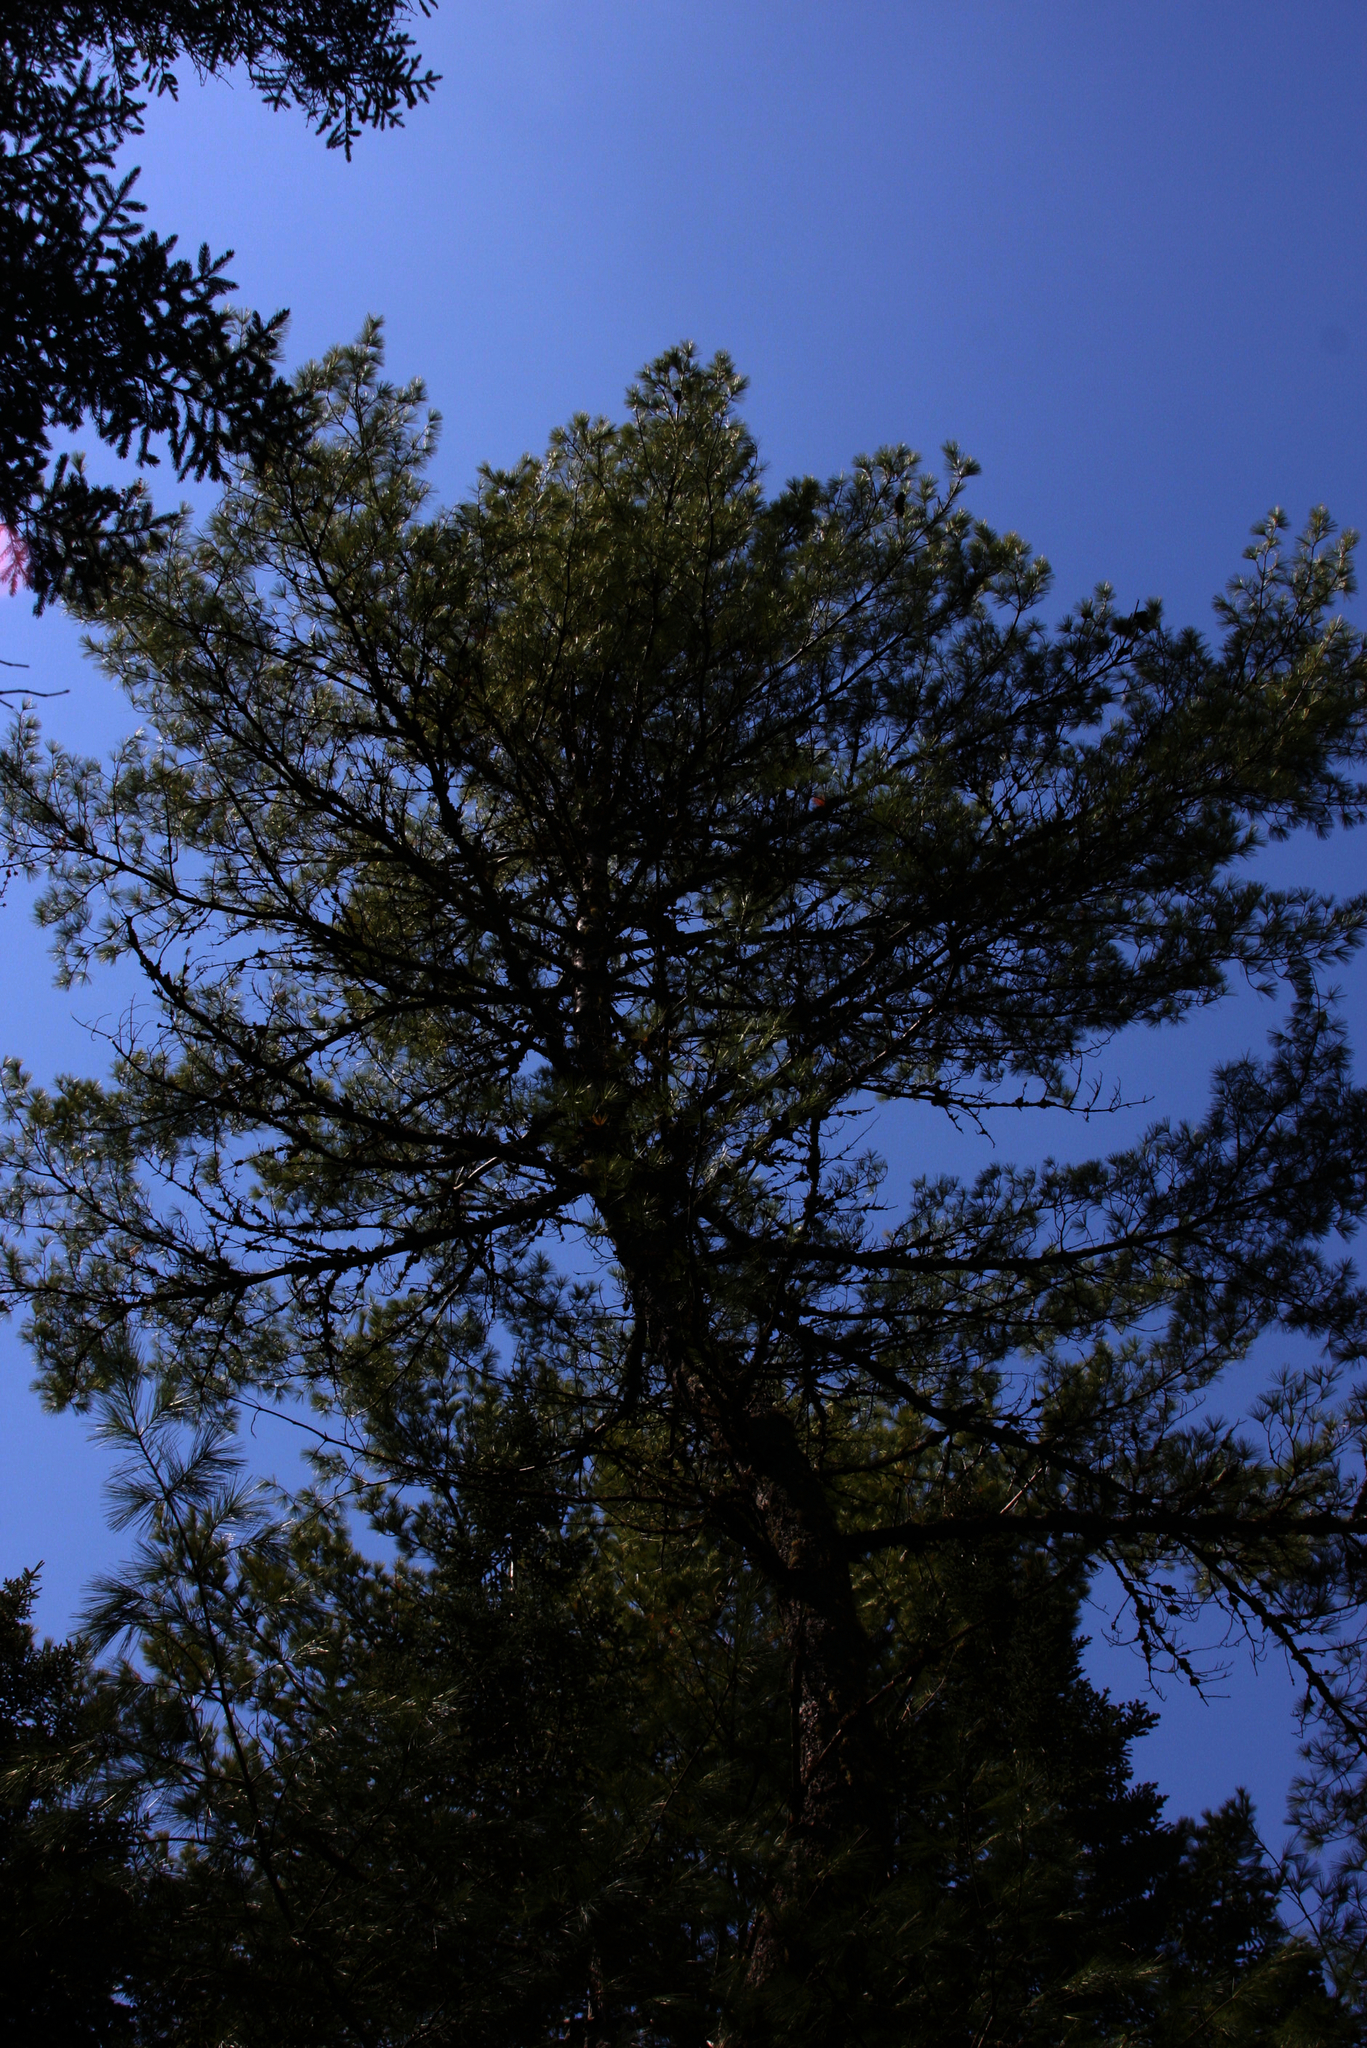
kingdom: Plantae
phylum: Tracheophyta
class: Pinopsida
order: Pinales
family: Pinaceae
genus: Pinus
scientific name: Pinus strobus
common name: Weymouth pine
